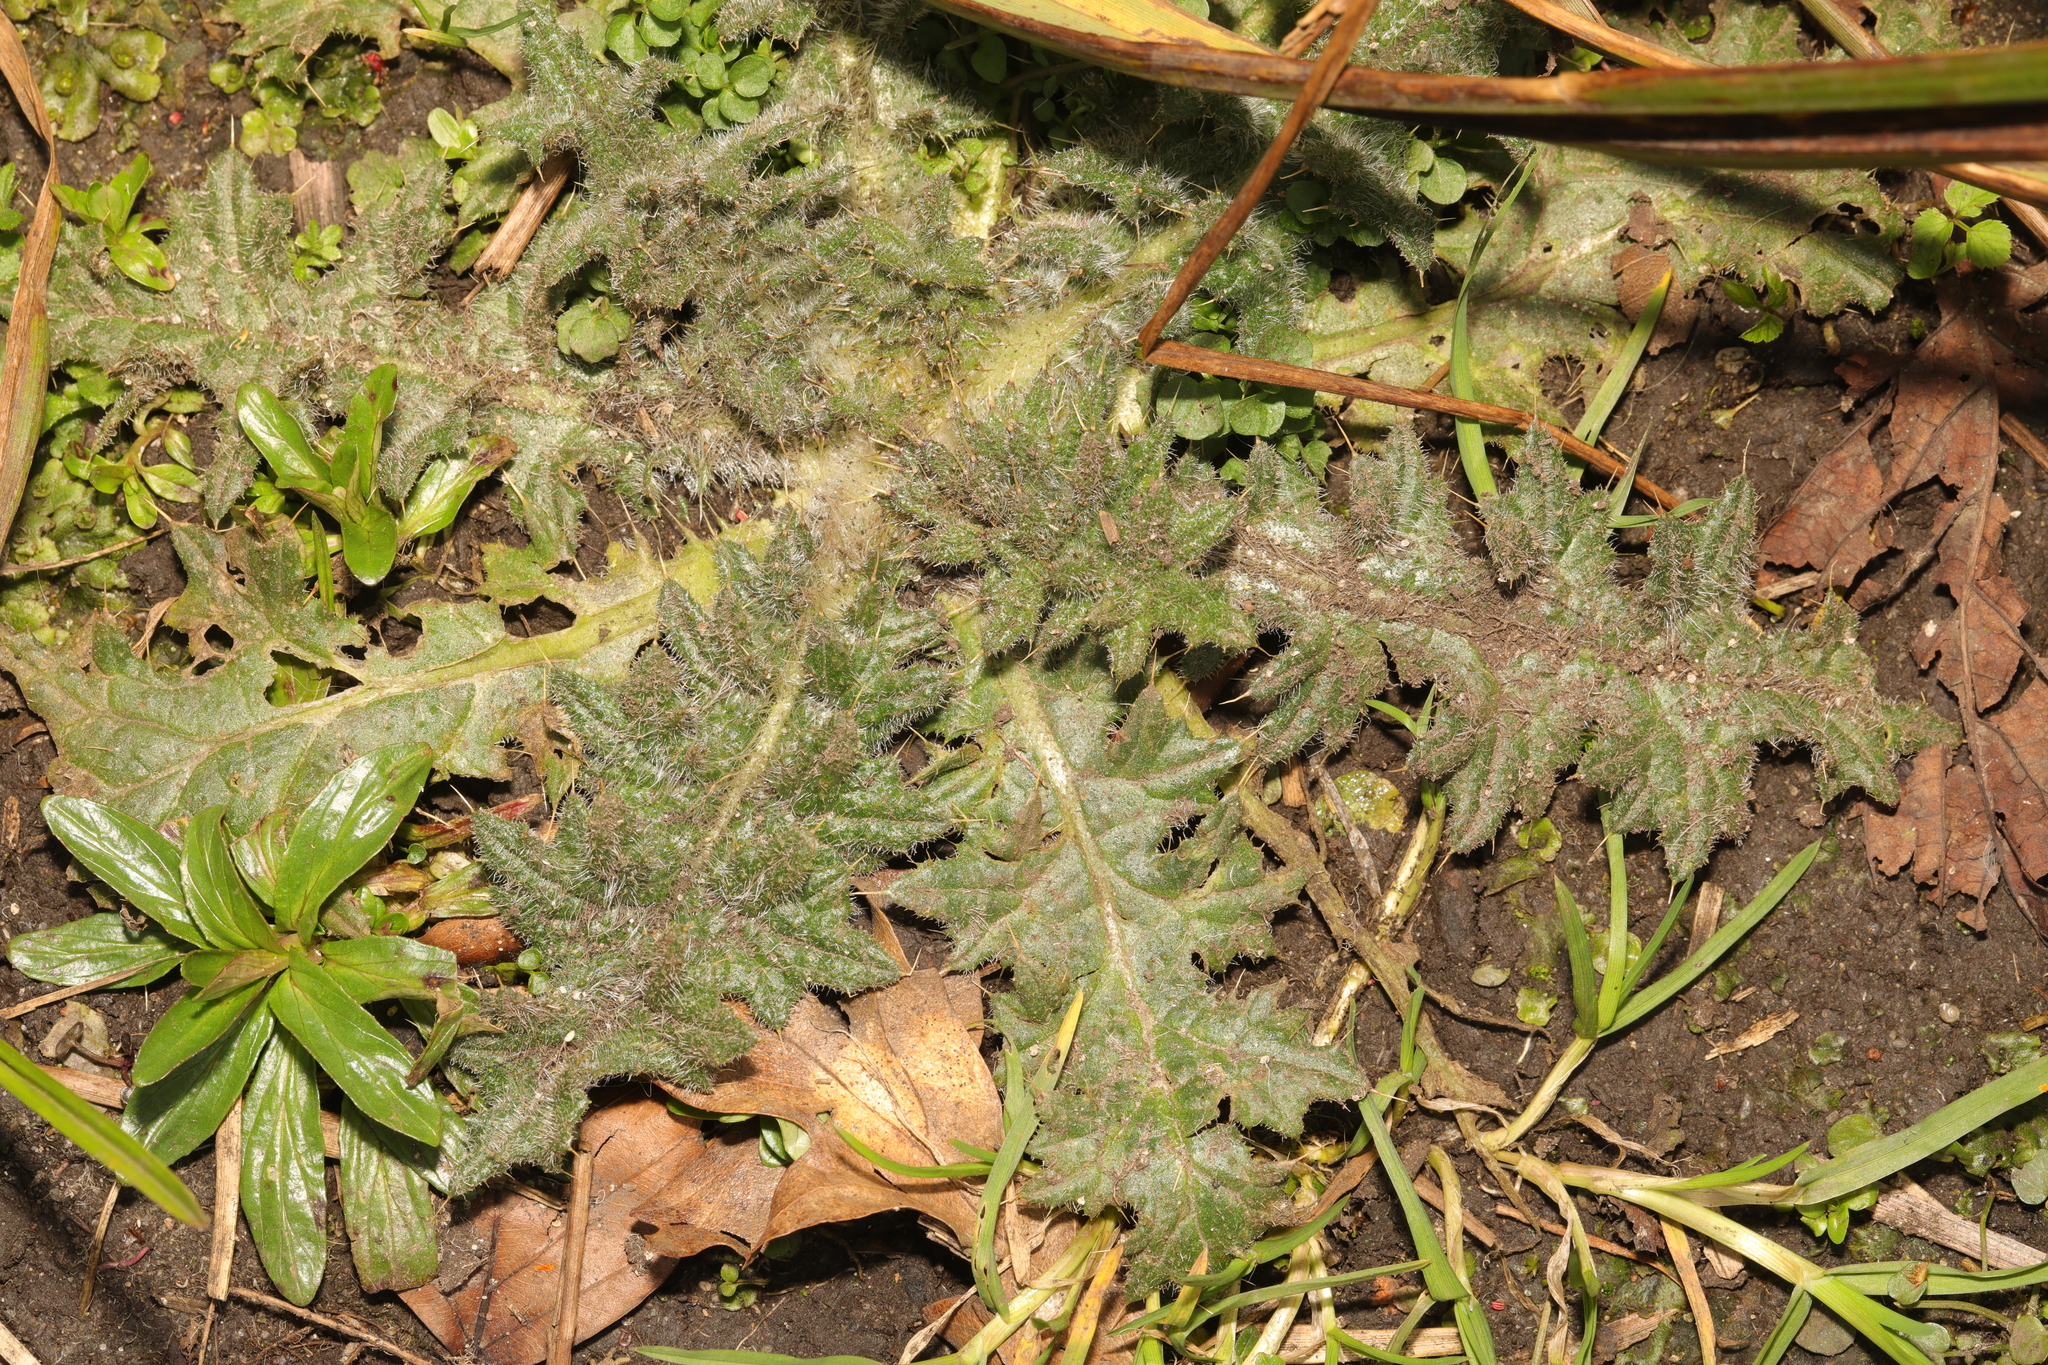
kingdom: Plantae
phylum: Tracheophyta
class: Magnoliopsida
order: Asterales
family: Asteraceae
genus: Cirsium
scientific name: Cirsium vulgare
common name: Bull thistle
